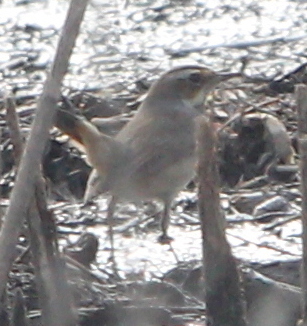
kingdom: Animalia
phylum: Chordata
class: Aves
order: Passeriformes
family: Muscicapidae
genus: Luscinia
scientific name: Luscinia svecica
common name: Bluethroat
